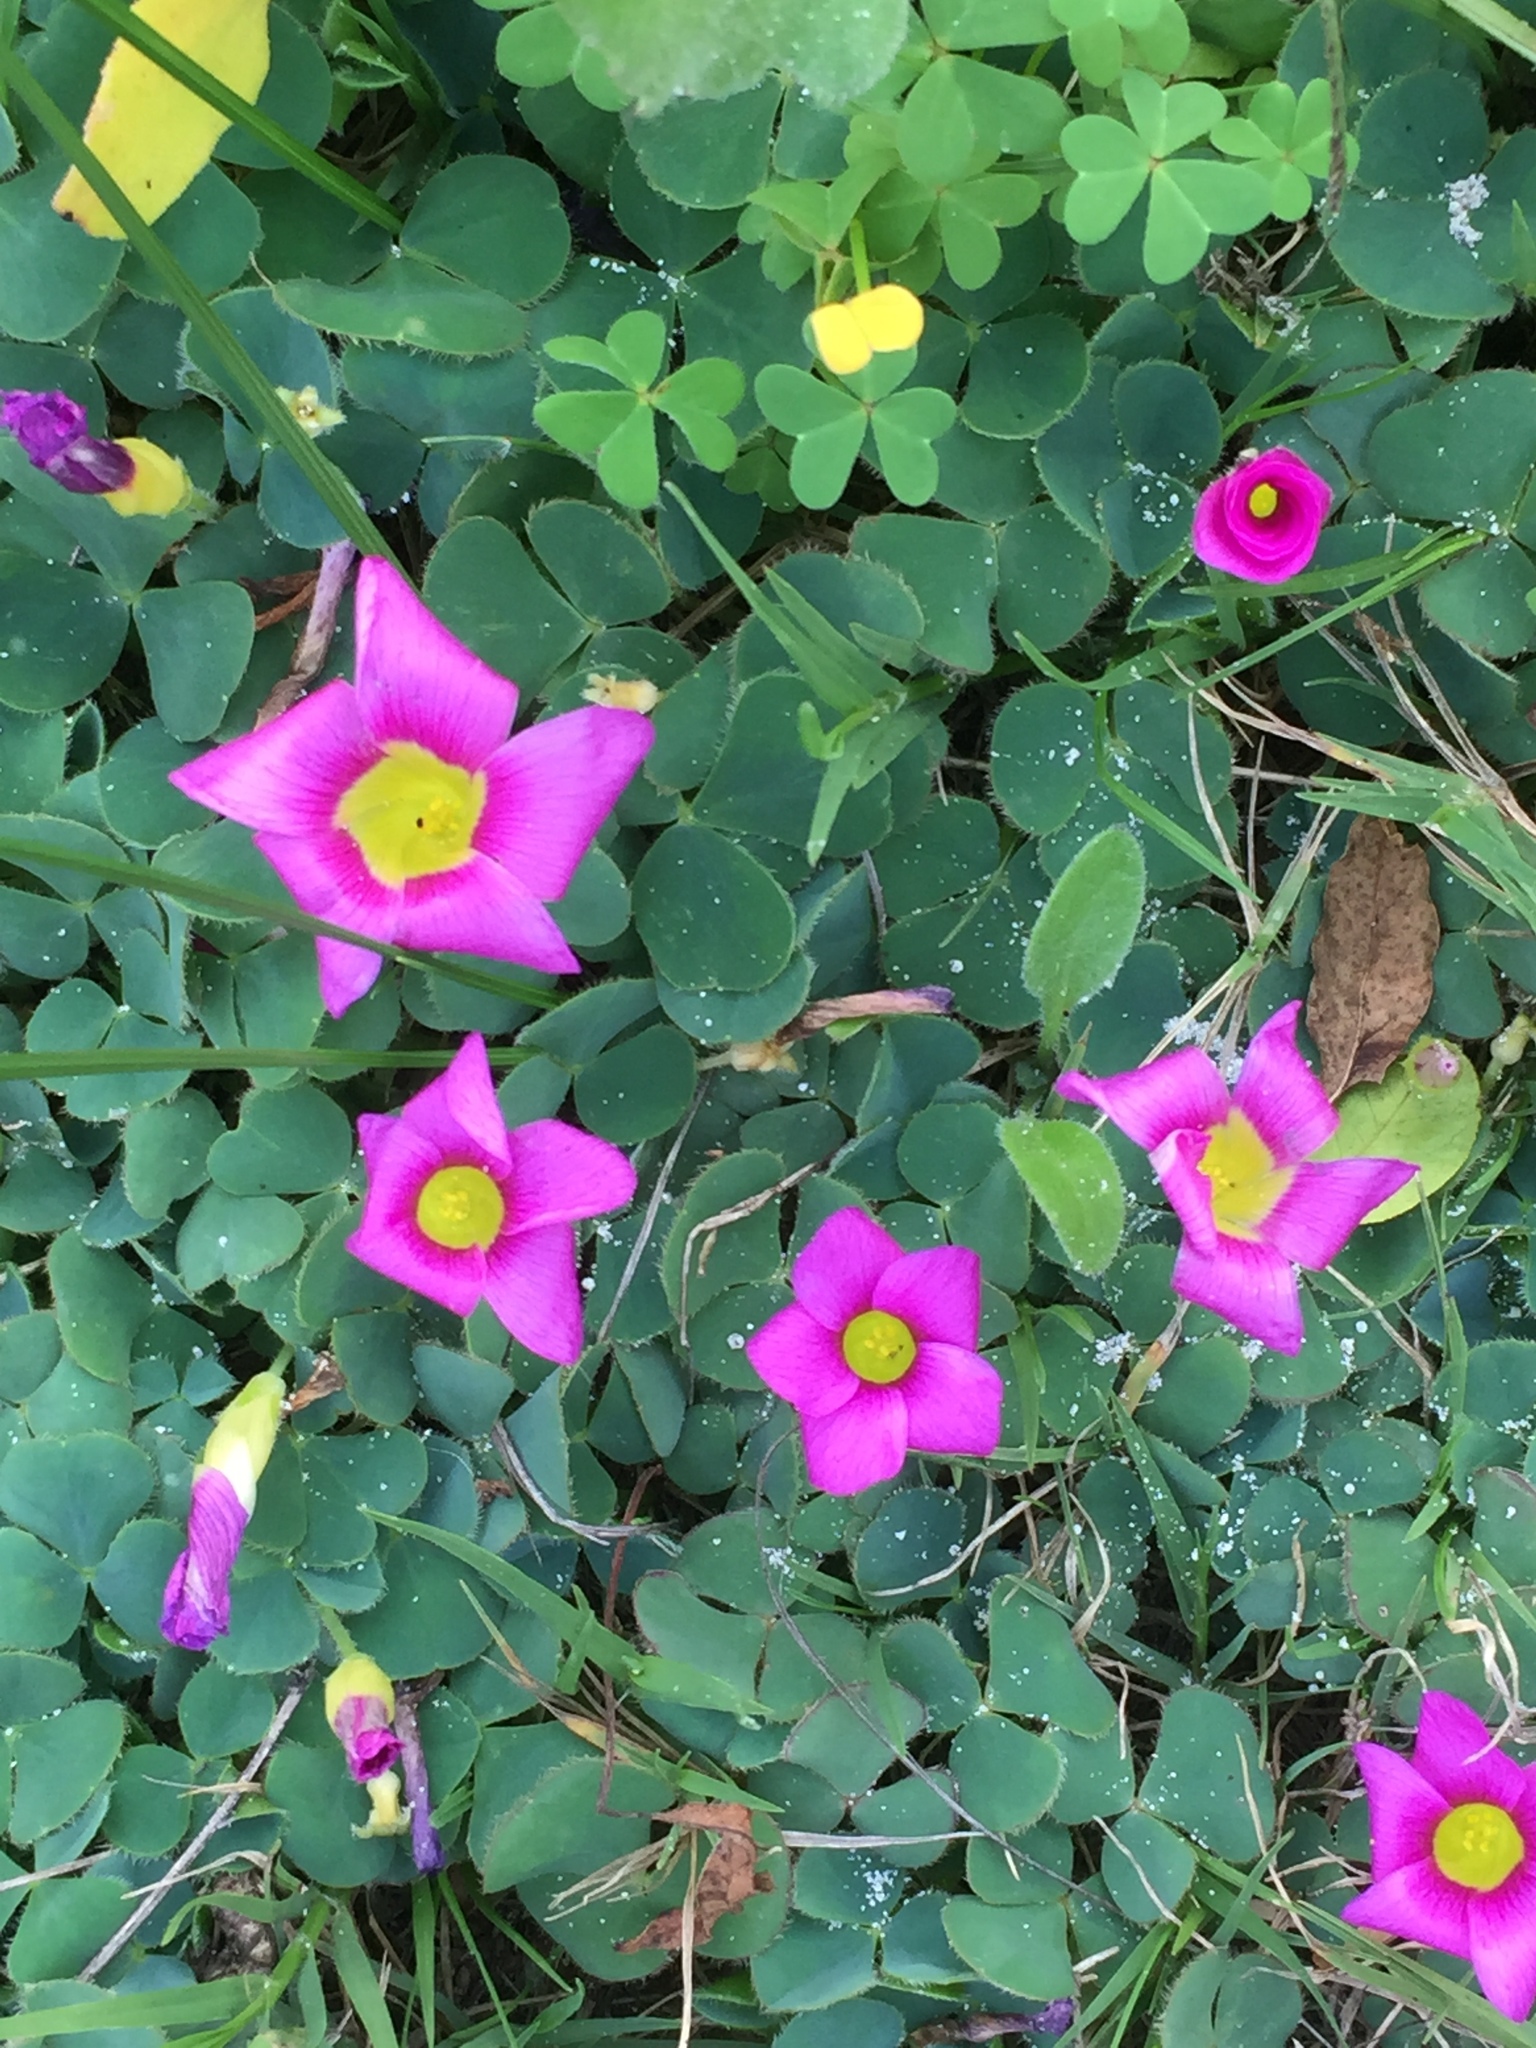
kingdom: Plantae
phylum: Tracheophyta
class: Magnoliopsida
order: Oxalidales
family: Oxalidaceae
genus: Oxalis
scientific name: Oxalis purpurea
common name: Purple woodsorrel
